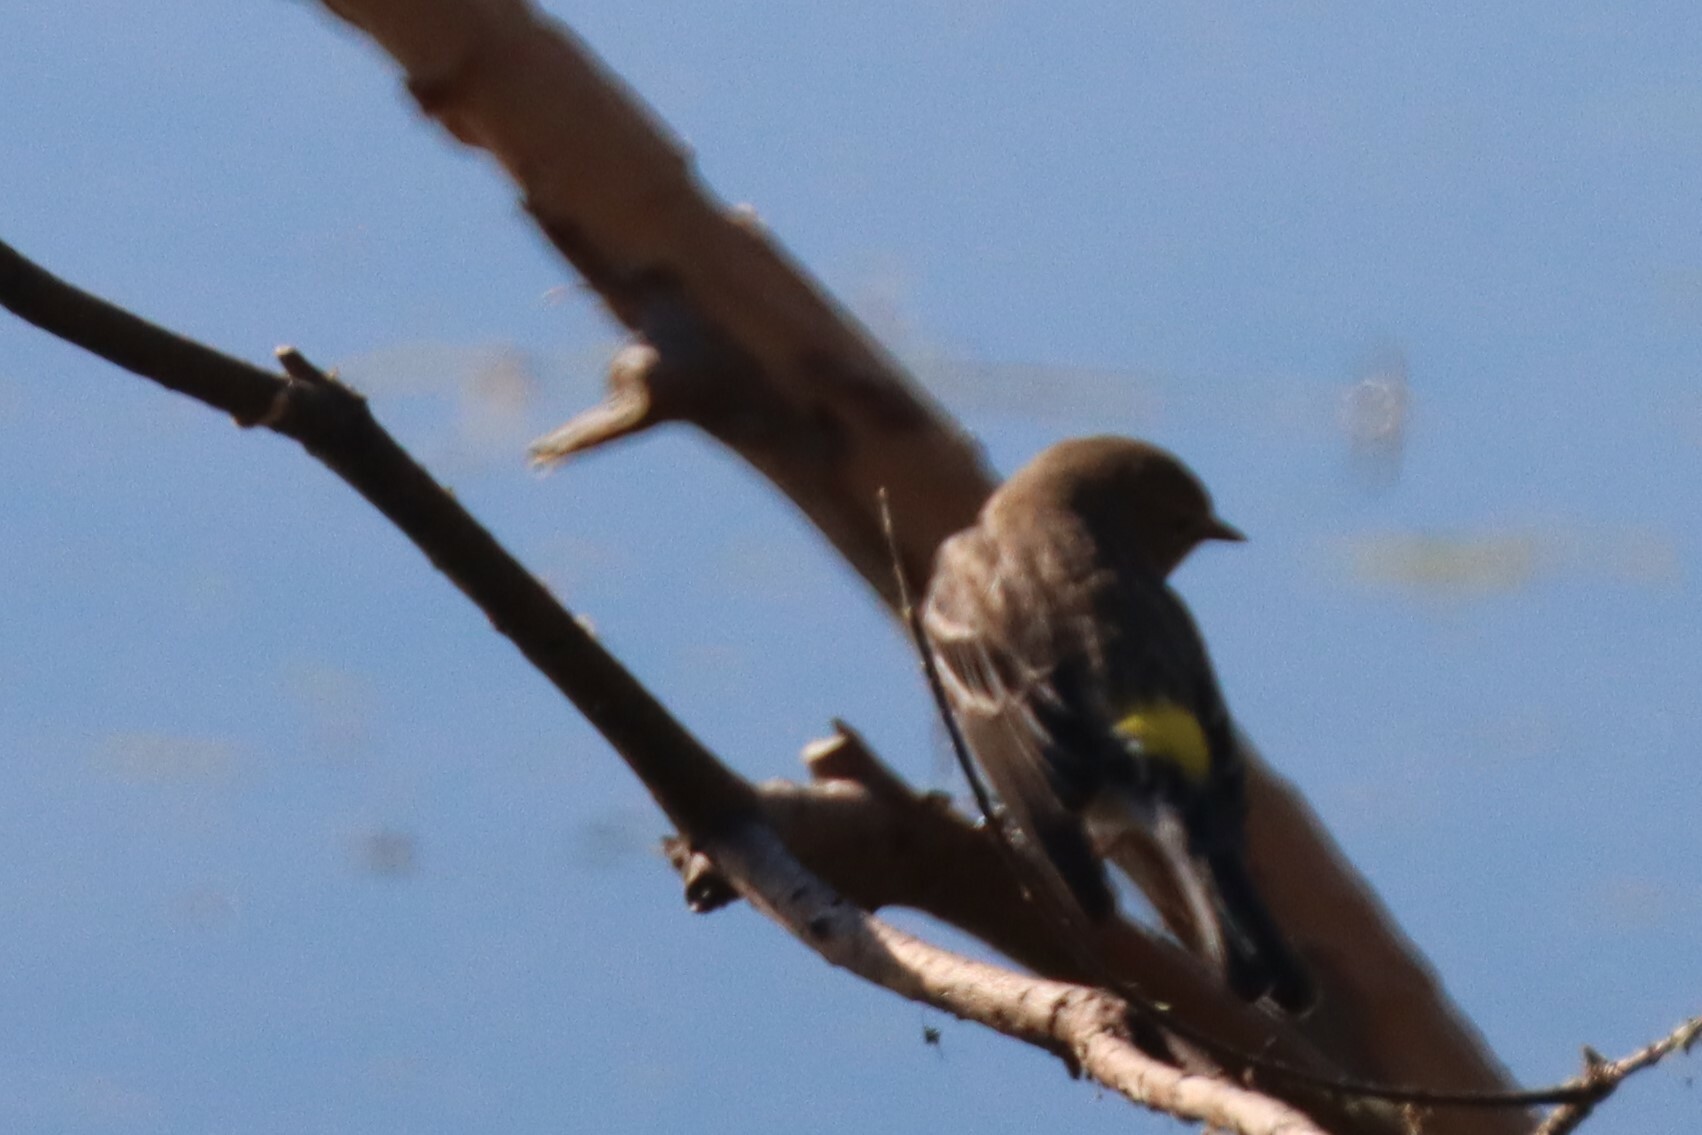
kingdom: Animalia
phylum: Chordata
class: Aves
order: Passeriformes
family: Parulidae
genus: Setophaga
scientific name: Setophaga coronata
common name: Myrtle warbler
